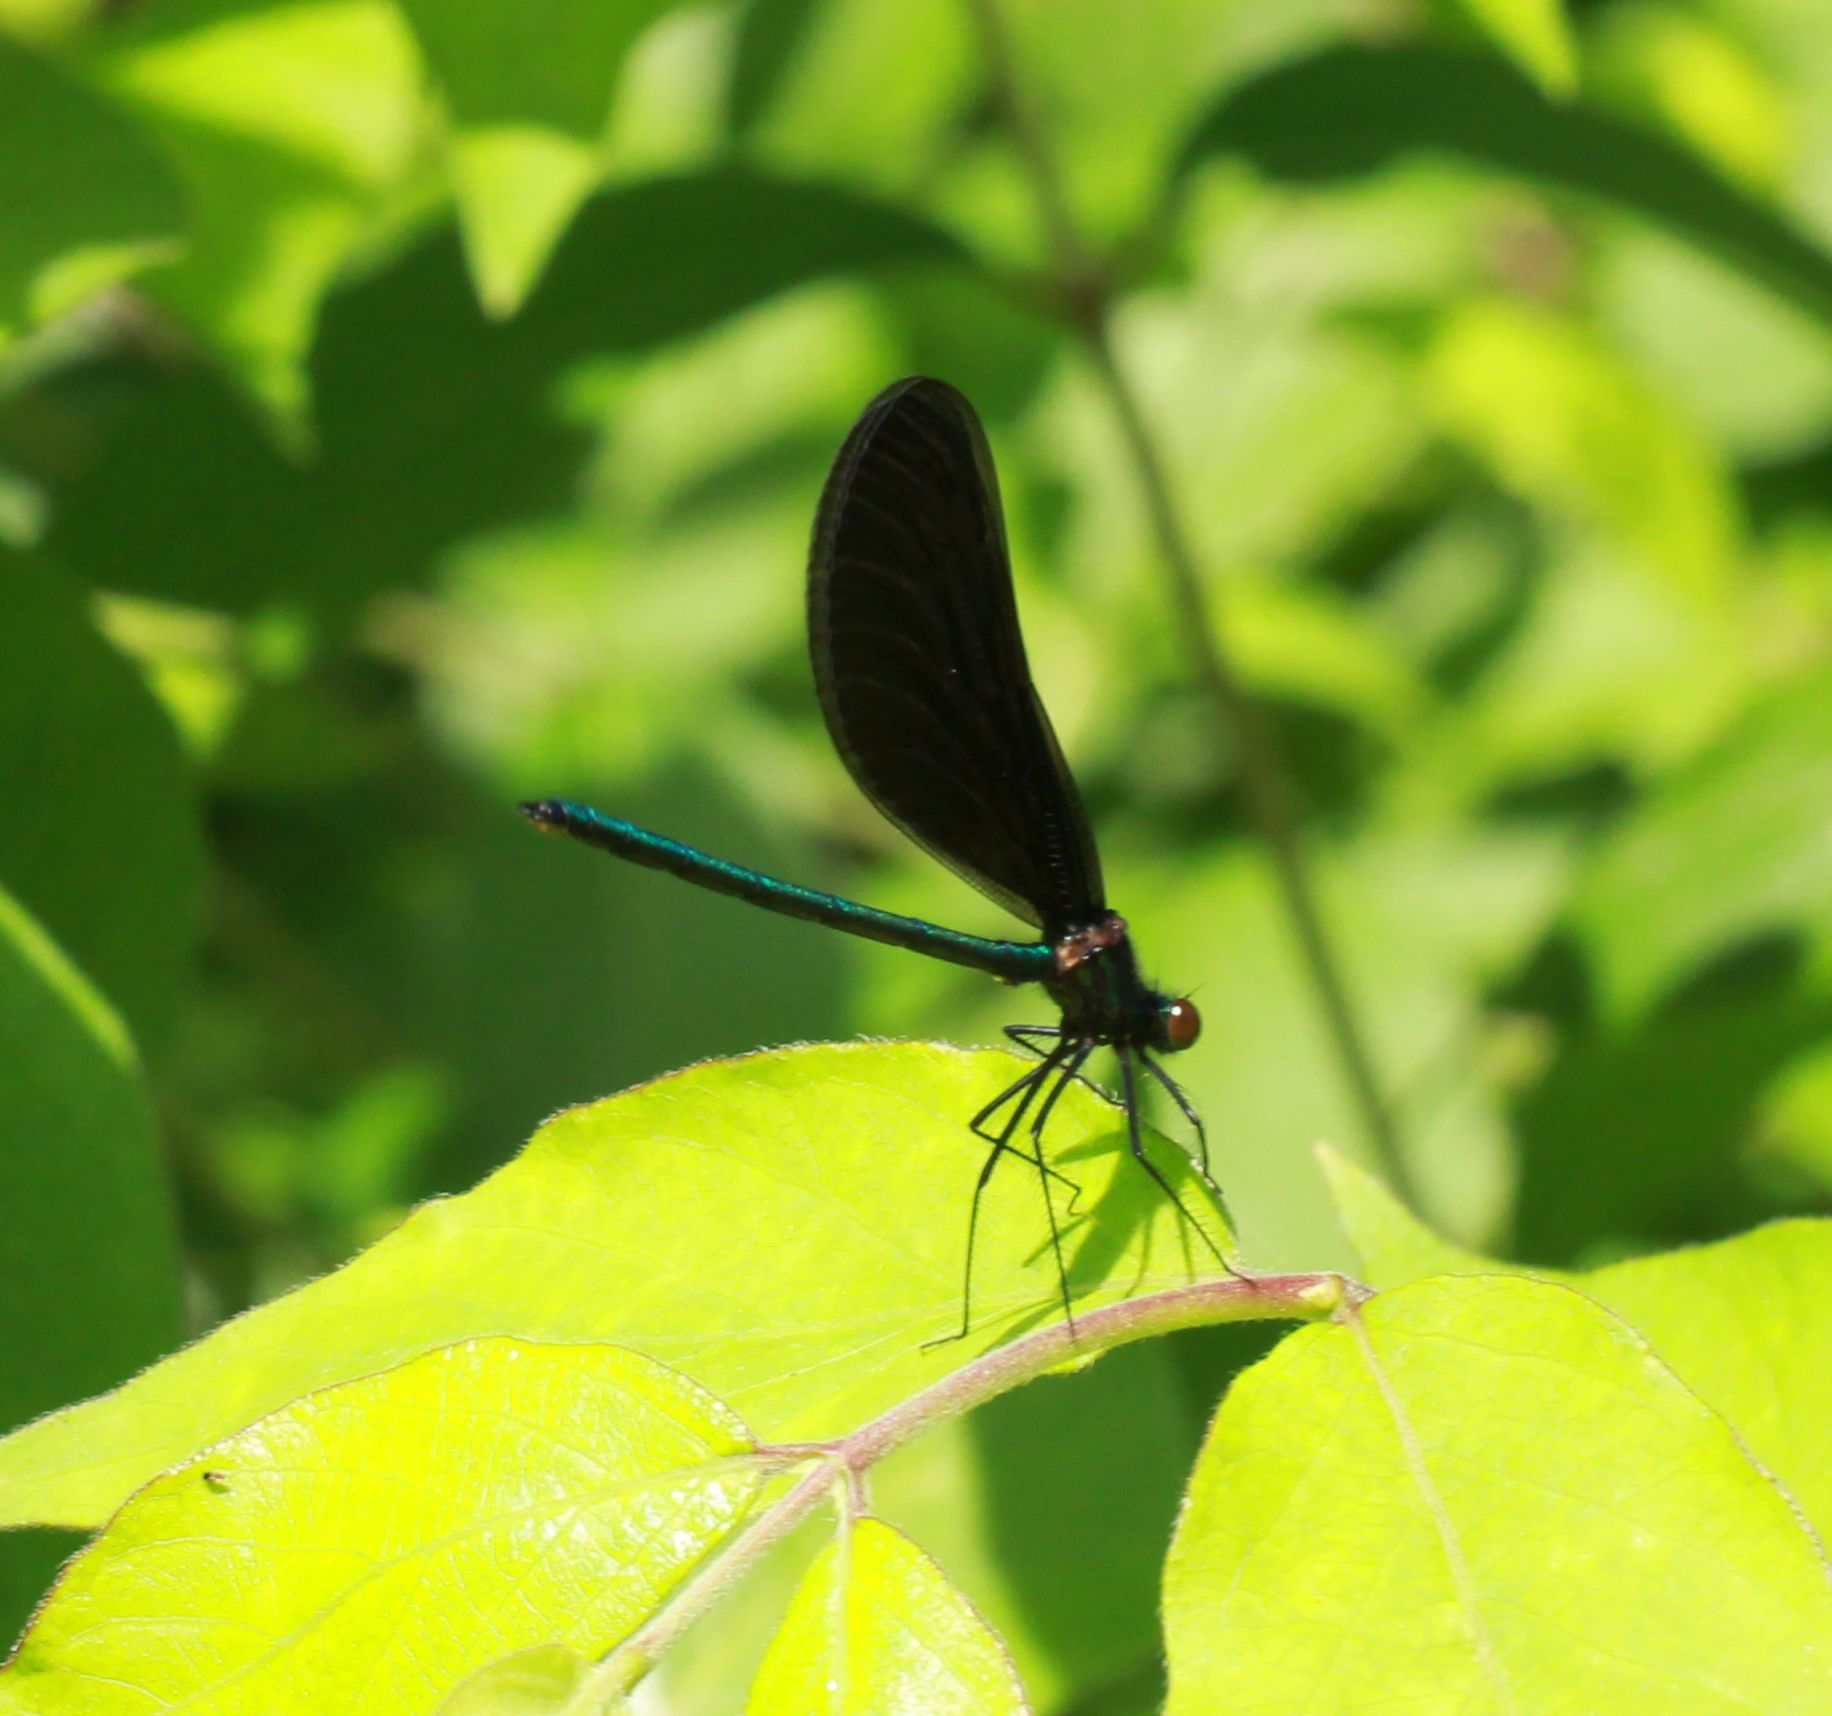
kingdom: Animalia
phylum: Arthropoda
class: Insecta
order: Odonata
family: Calopterygidae
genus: Calopteryx
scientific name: Calopteryx maculata
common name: Ebony jewelwing
